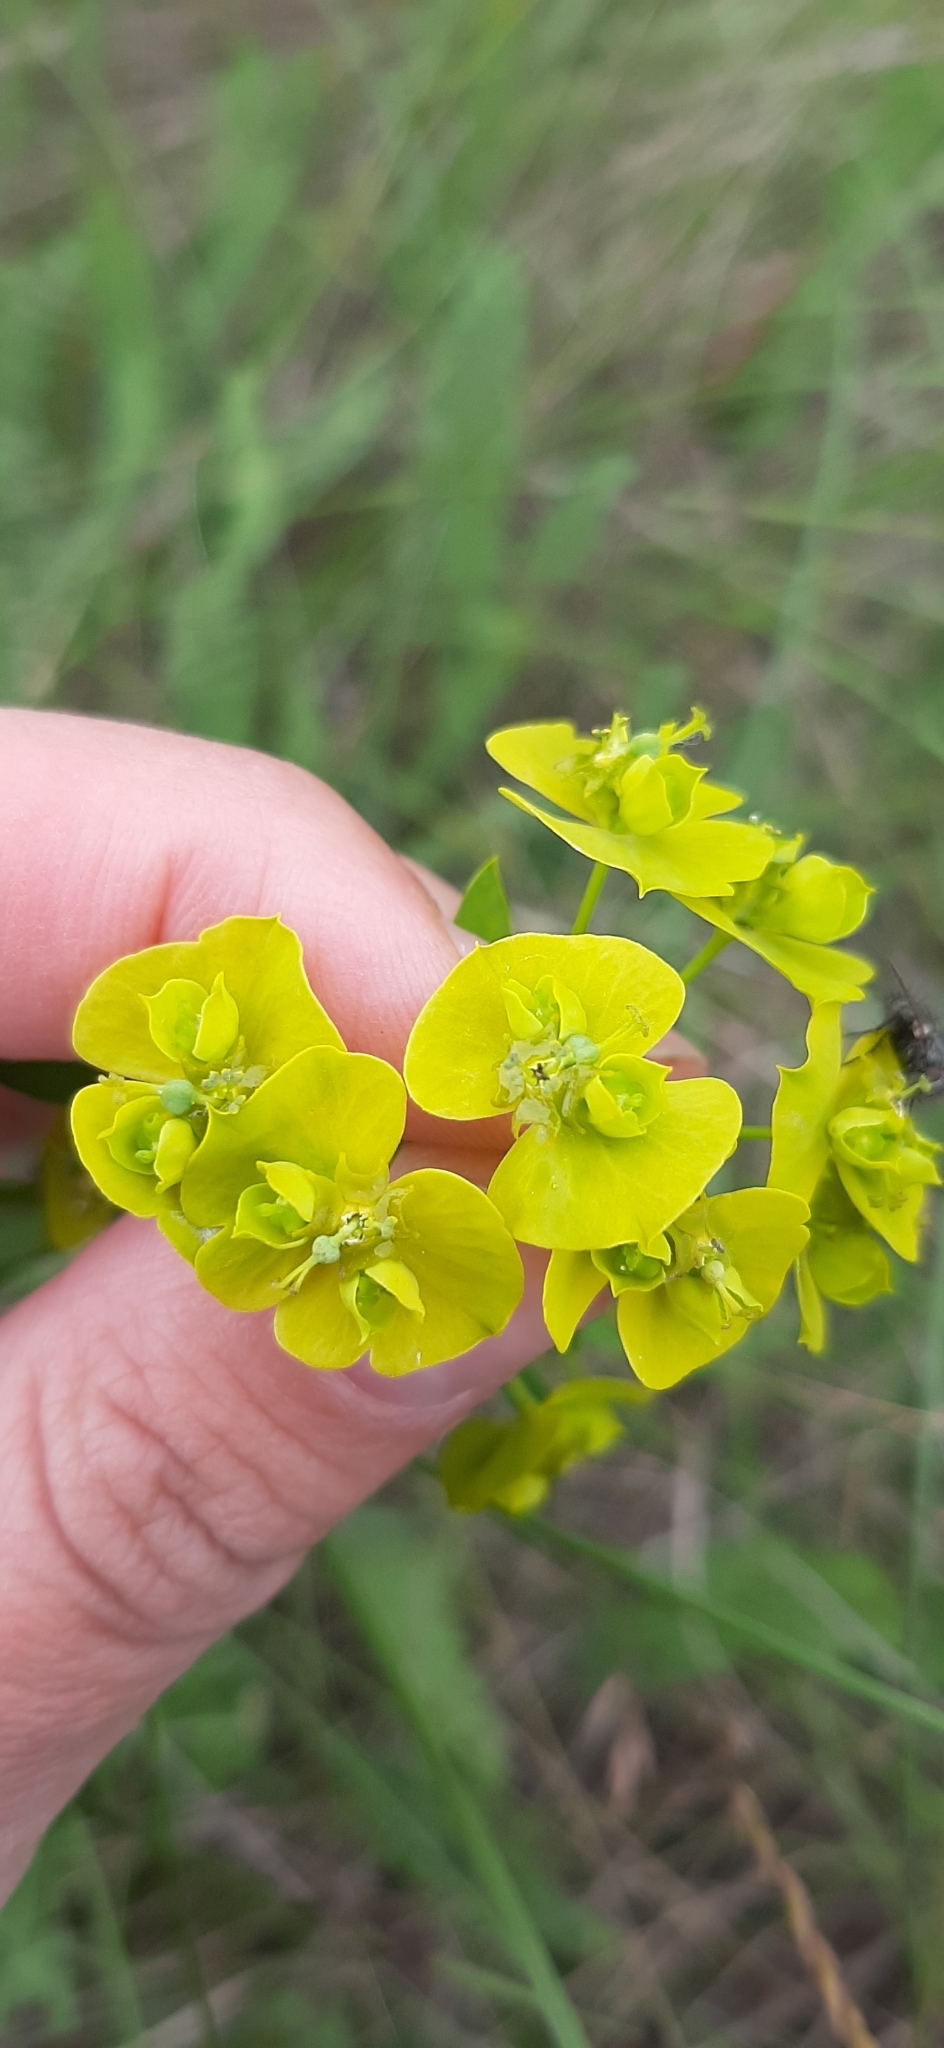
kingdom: Plantae
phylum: Tracheophyta
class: Magnoliopsida
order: Malpighiales
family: Euphorbiaceae
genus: Euphorbia
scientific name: Euphorbia virgata
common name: Leafy spurge
